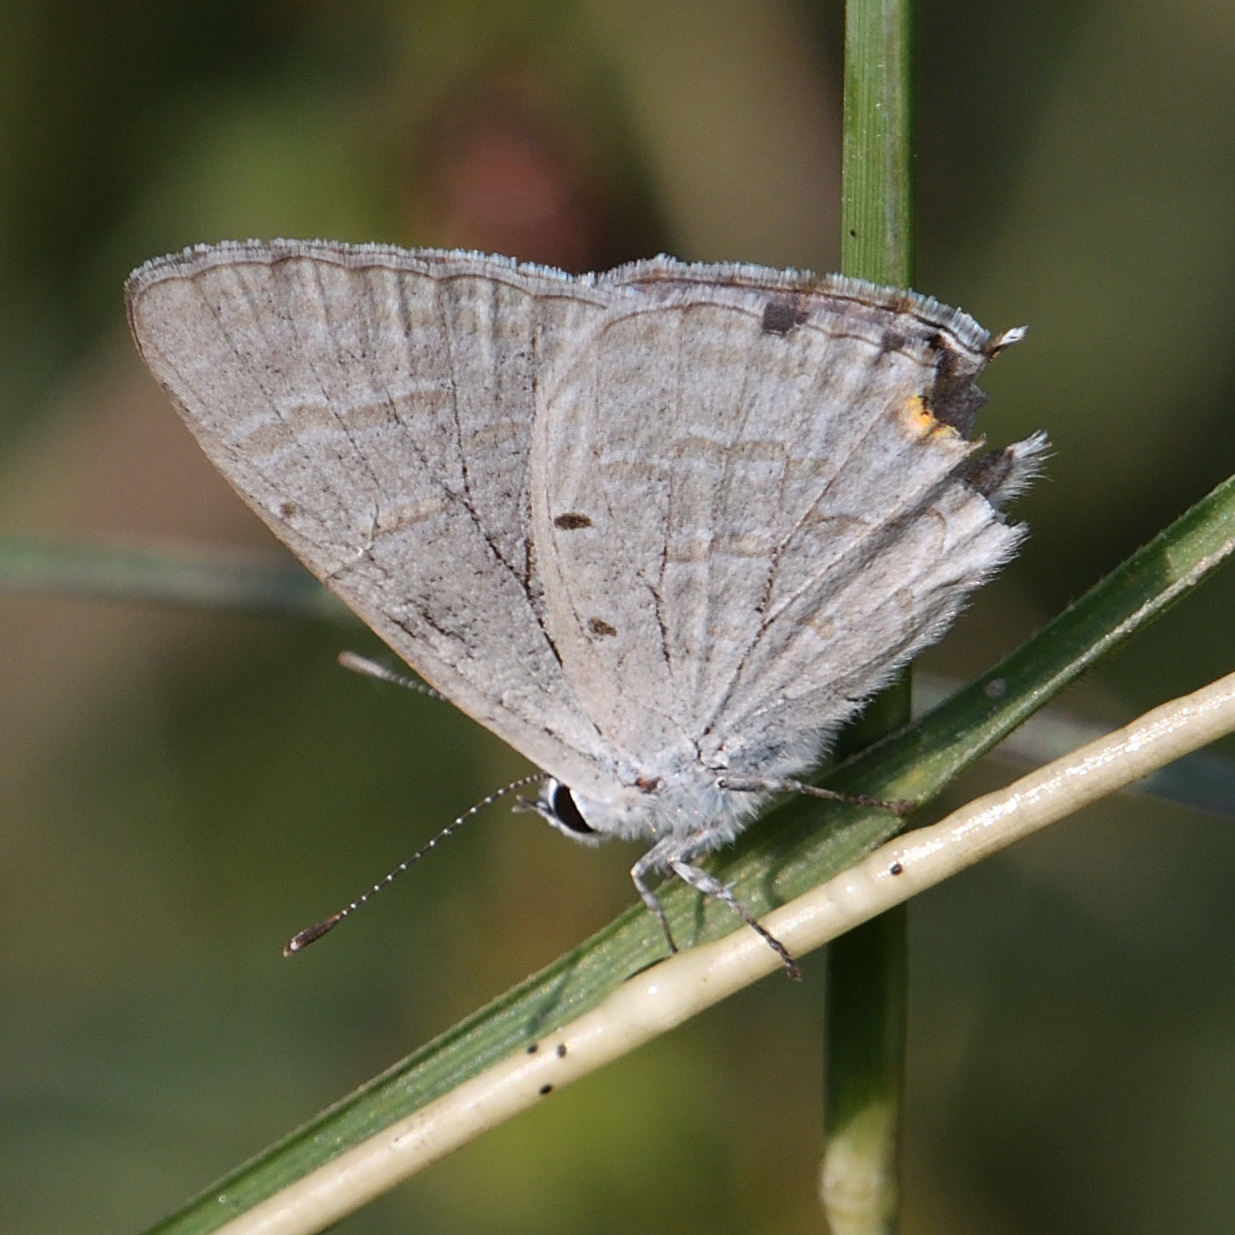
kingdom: Animalia
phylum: Arthropoda
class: Insecta
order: Lepidoptera
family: Lycaenidae
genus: Catochrysops
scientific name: Catochrysops strabo
